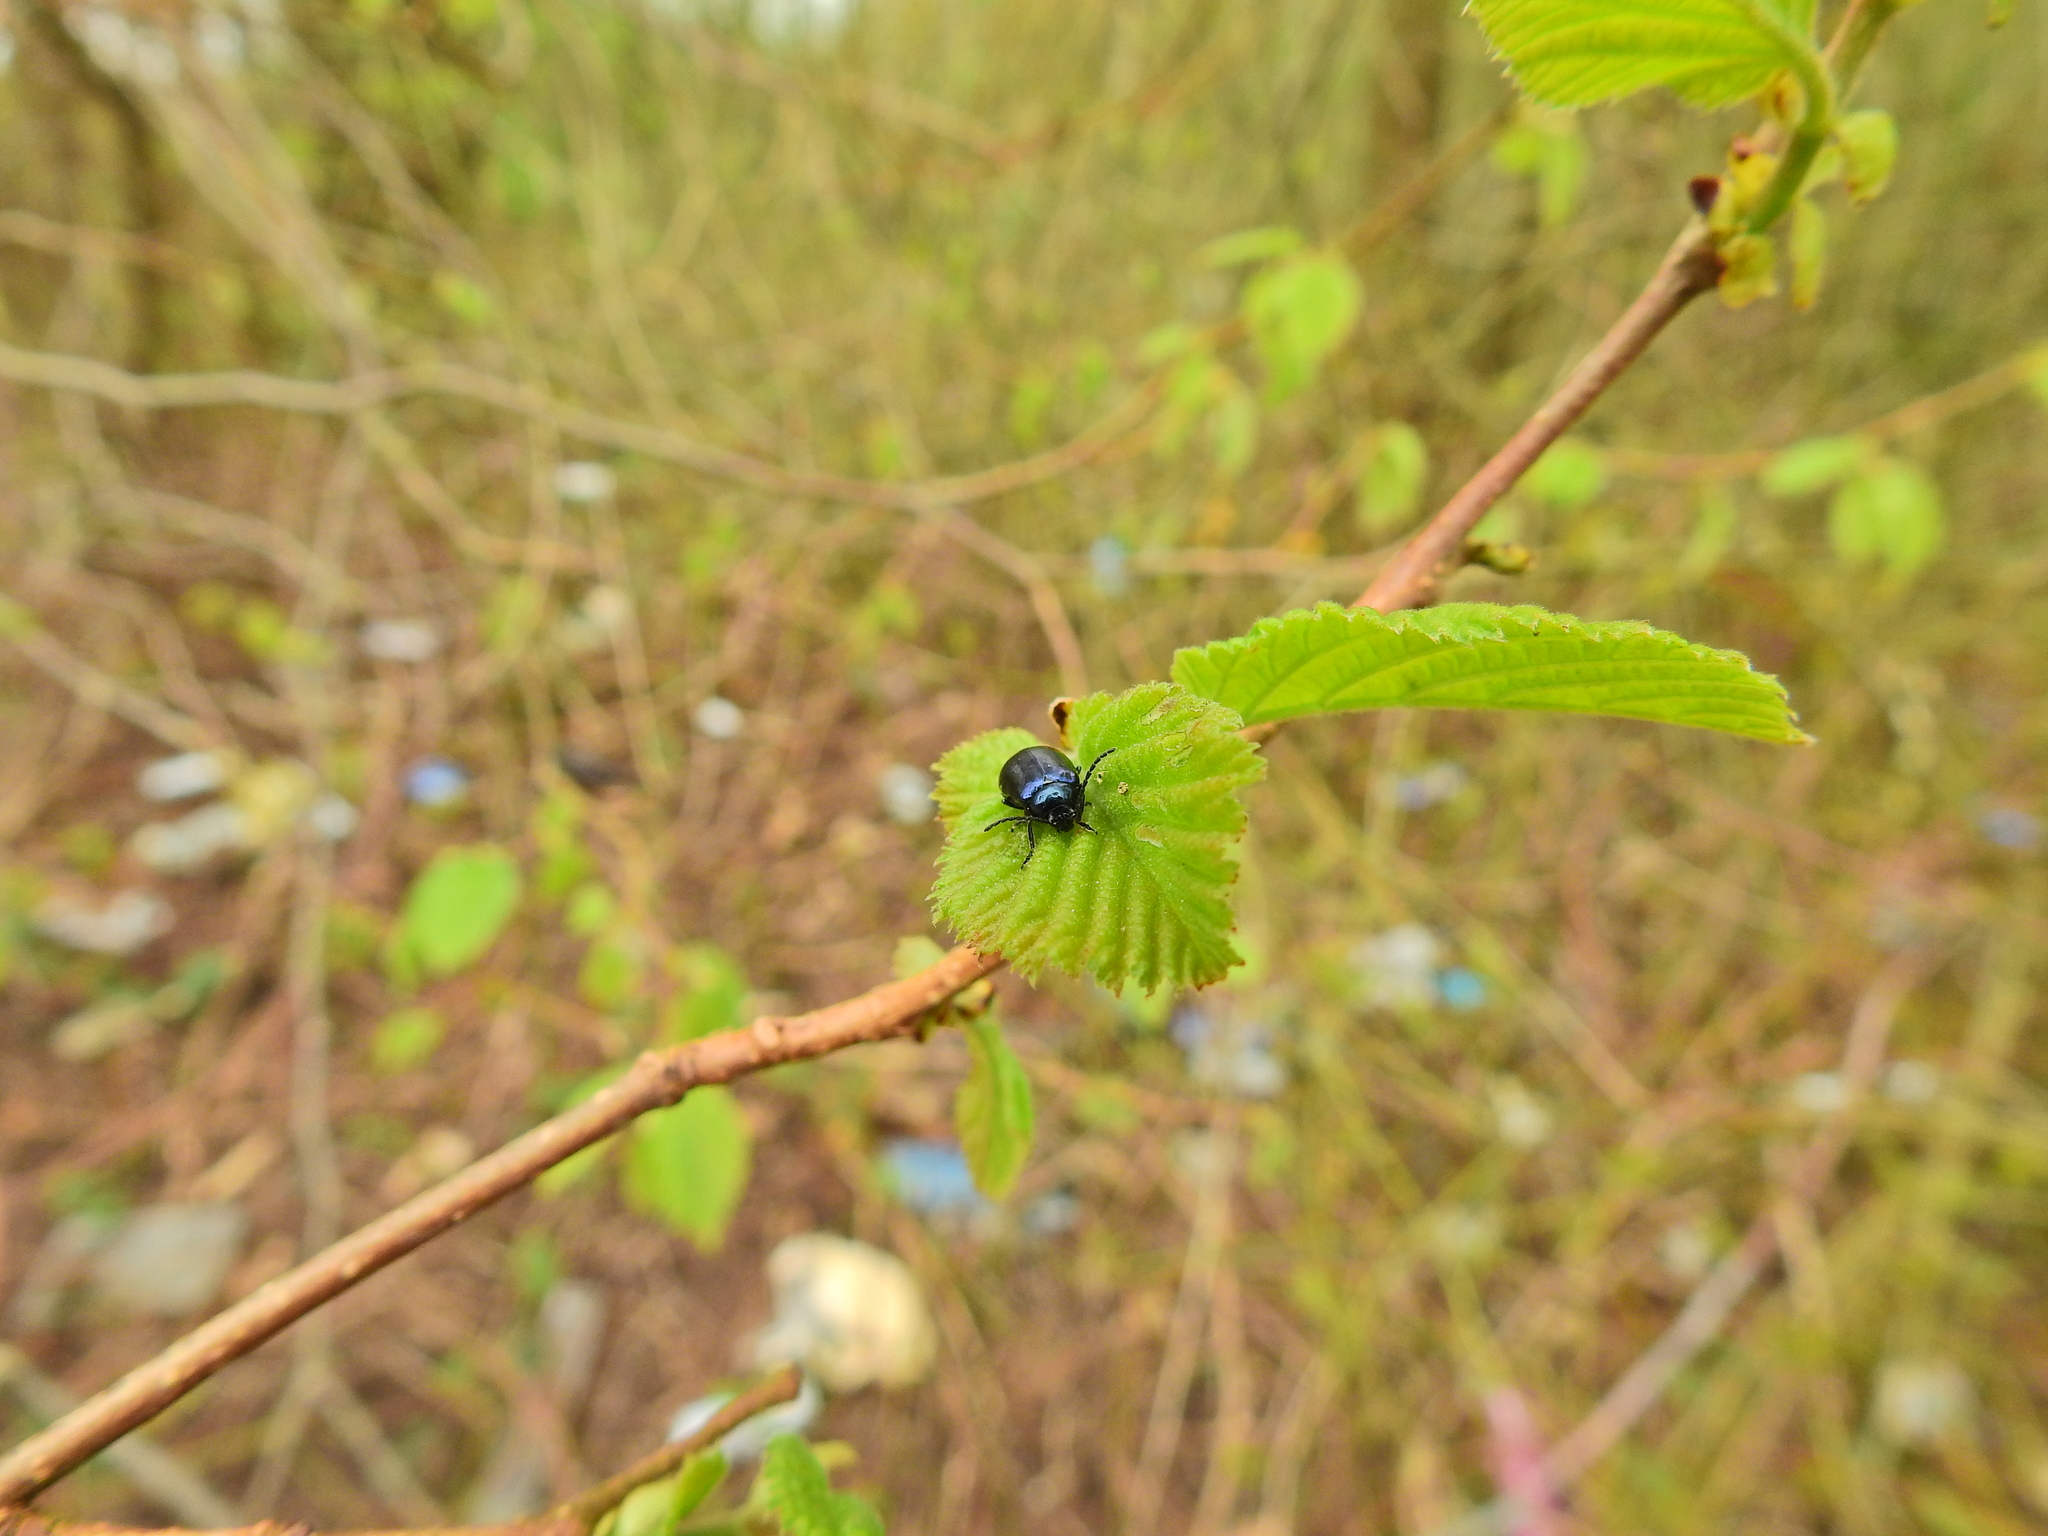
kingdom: Animalia
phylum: Arthropoda
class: Insecta
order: Coleoptera
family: Chrysomelidae
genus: Agelastica
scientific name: Agelastica alni
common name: Alder leaf beetle
